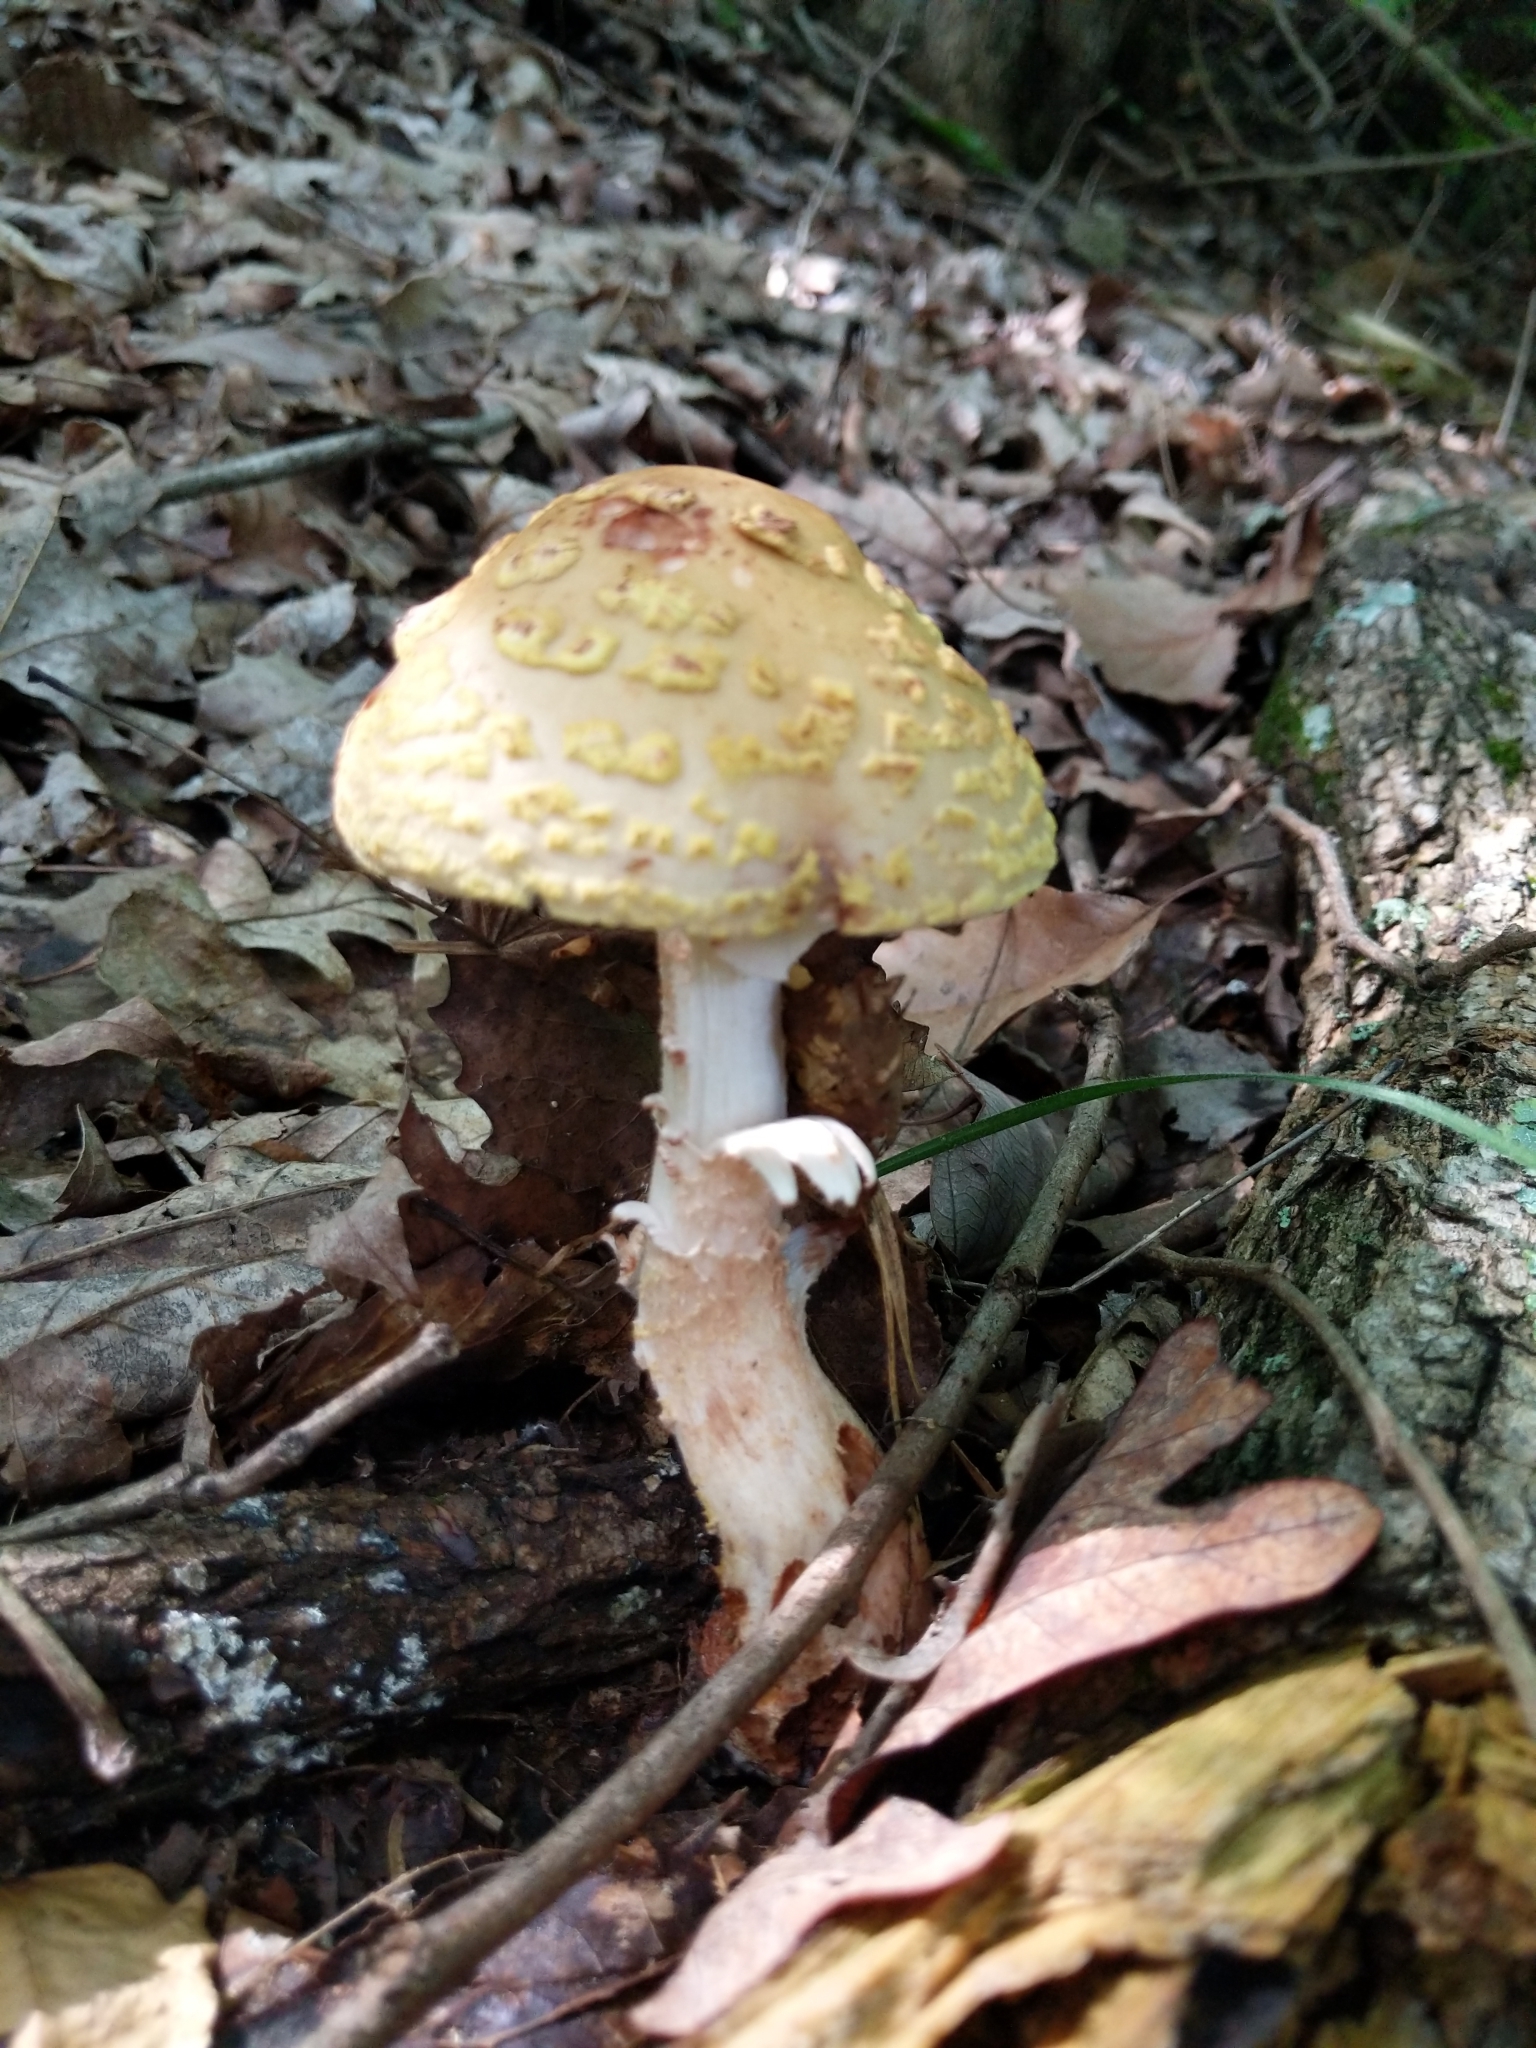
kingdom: Fungi
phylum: Basidiomycota
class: Agaricomycetes
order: Agaricales
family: Amanitaceae
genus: Amanita
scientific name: Amanita flavorubens
